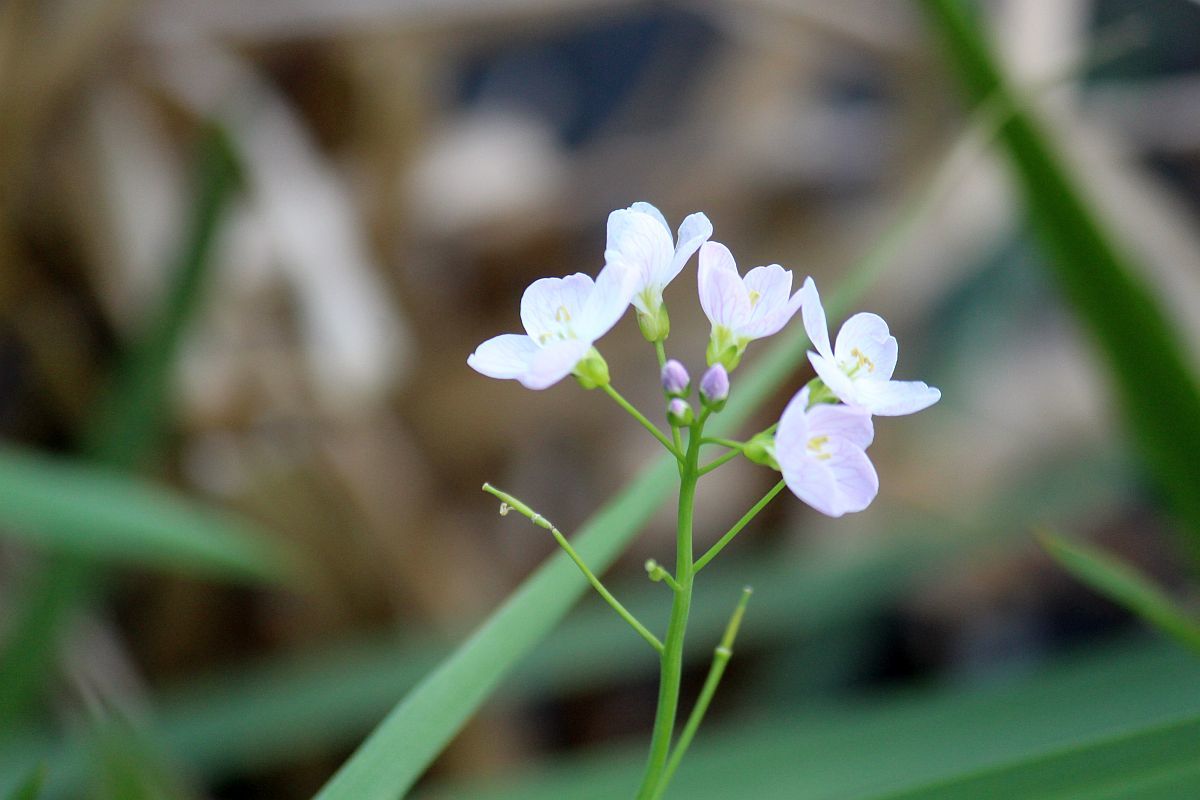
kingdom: Plantae
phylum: Tracheophyta
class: Magnoliopsida
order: Brassicales
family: Brassicaceae
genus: Cardamine
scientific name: Cardamine pratensis
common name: Cuckoo flower
